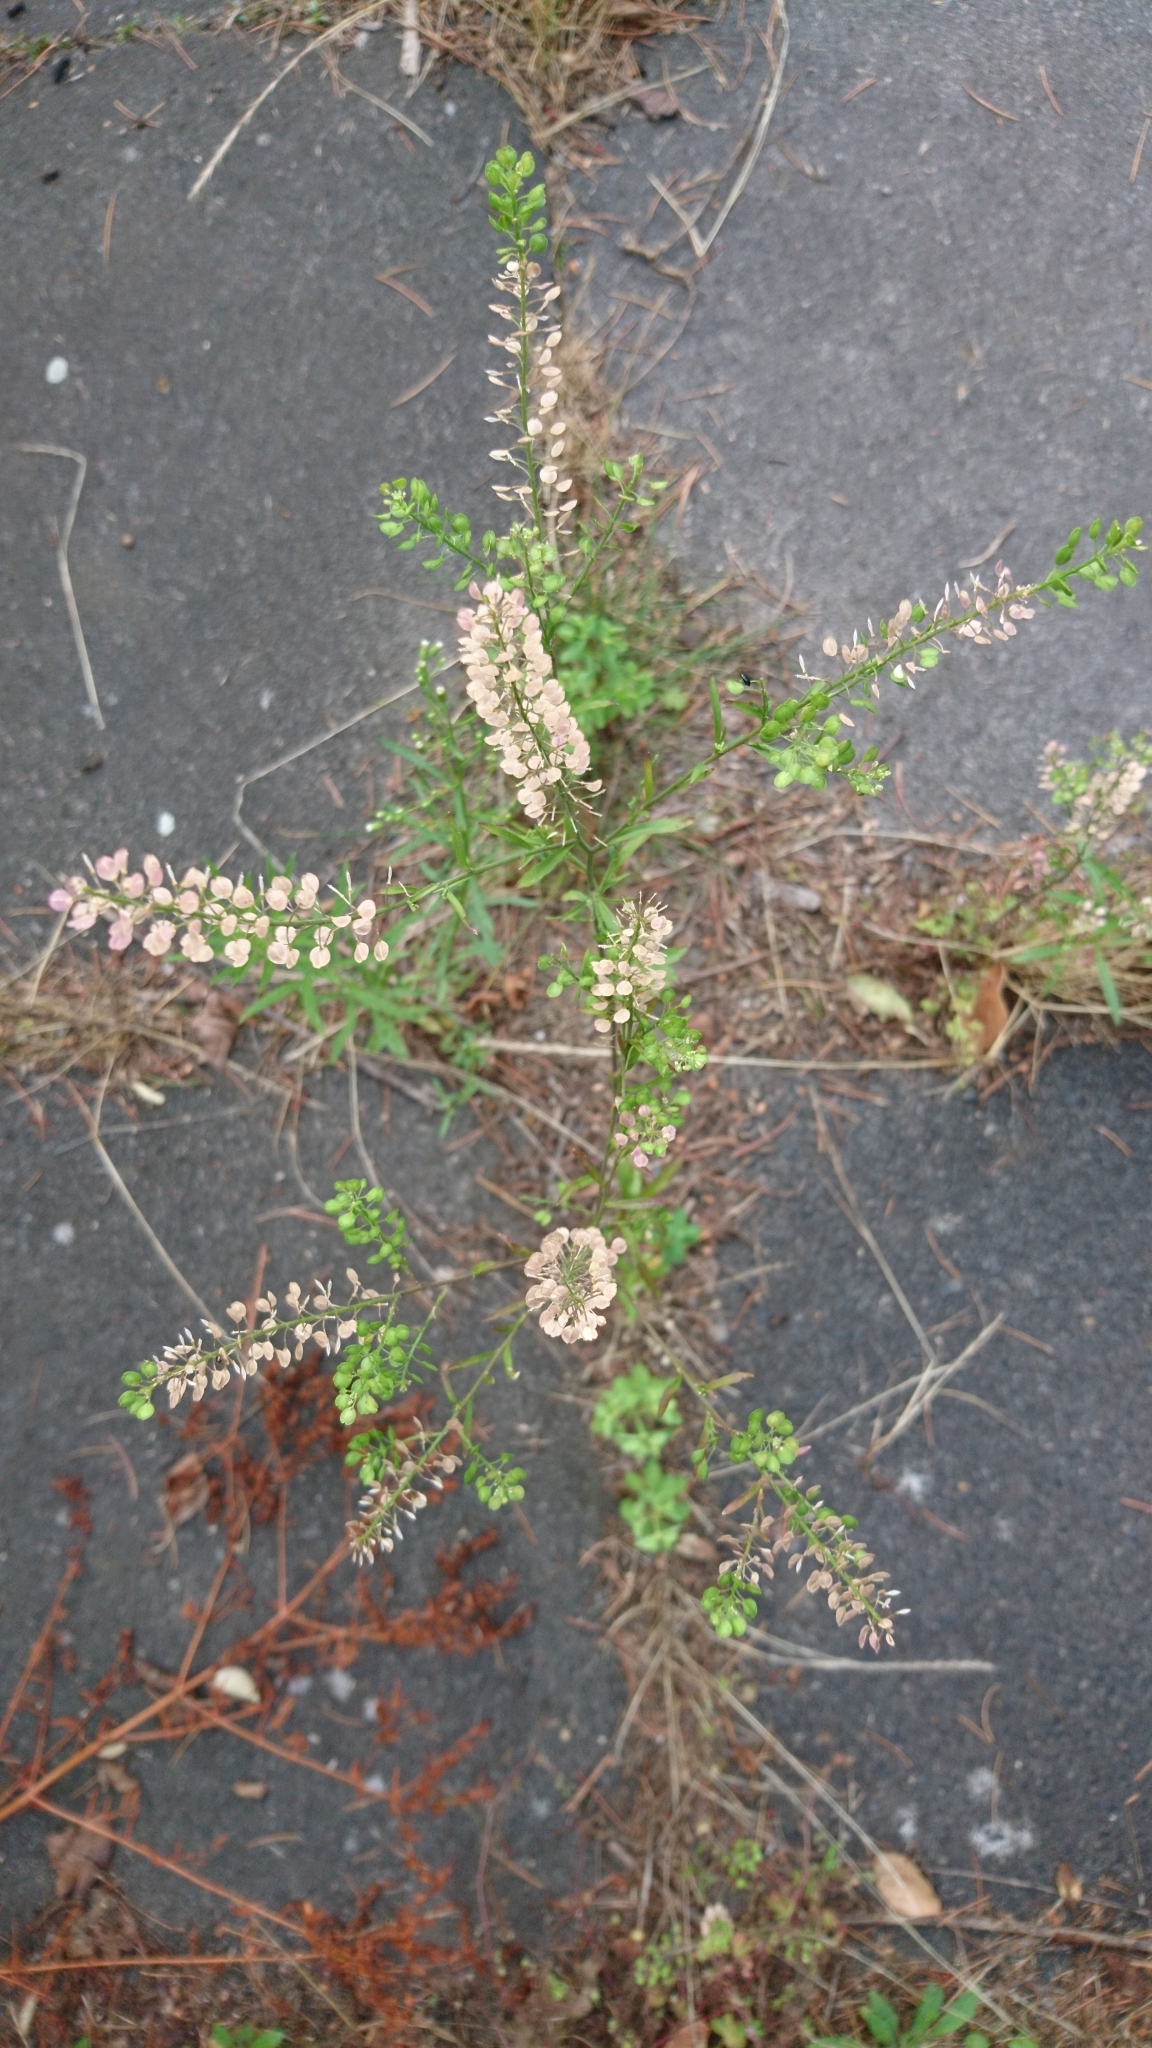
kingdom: Plantae
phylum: Tracheophyta
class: Magnoliopsida
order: Brassicales
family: Brassicaceae
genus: Lepidium
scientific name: Lepidium virginicum
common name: Least pepperwort
